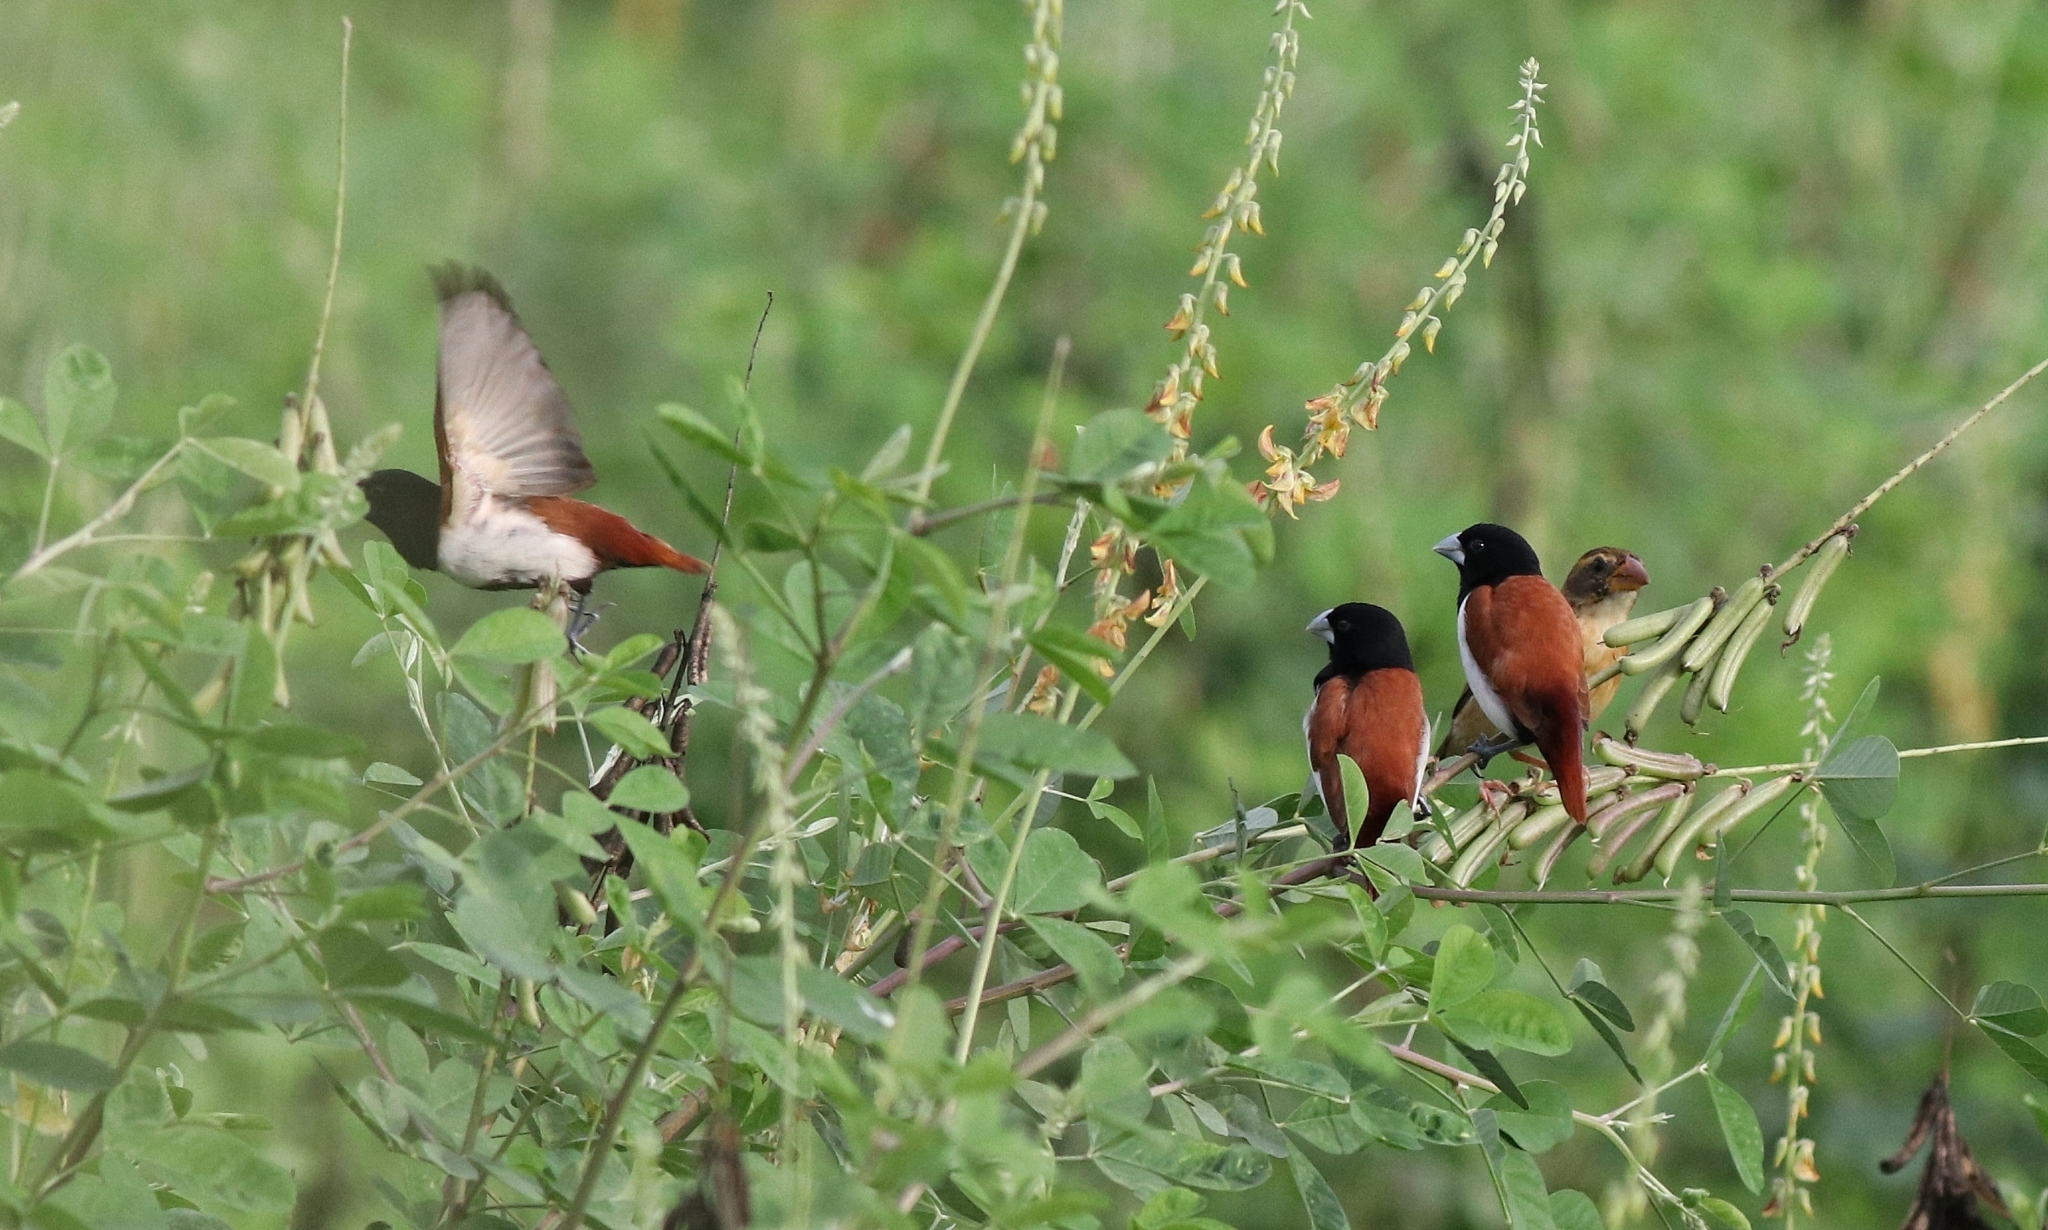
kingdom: Animalia
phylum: Chordata
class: Aves
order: Passeriformes
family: Estrildidae
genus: Lonchura
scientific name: Lonchura malacca
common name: Tricolored munia
